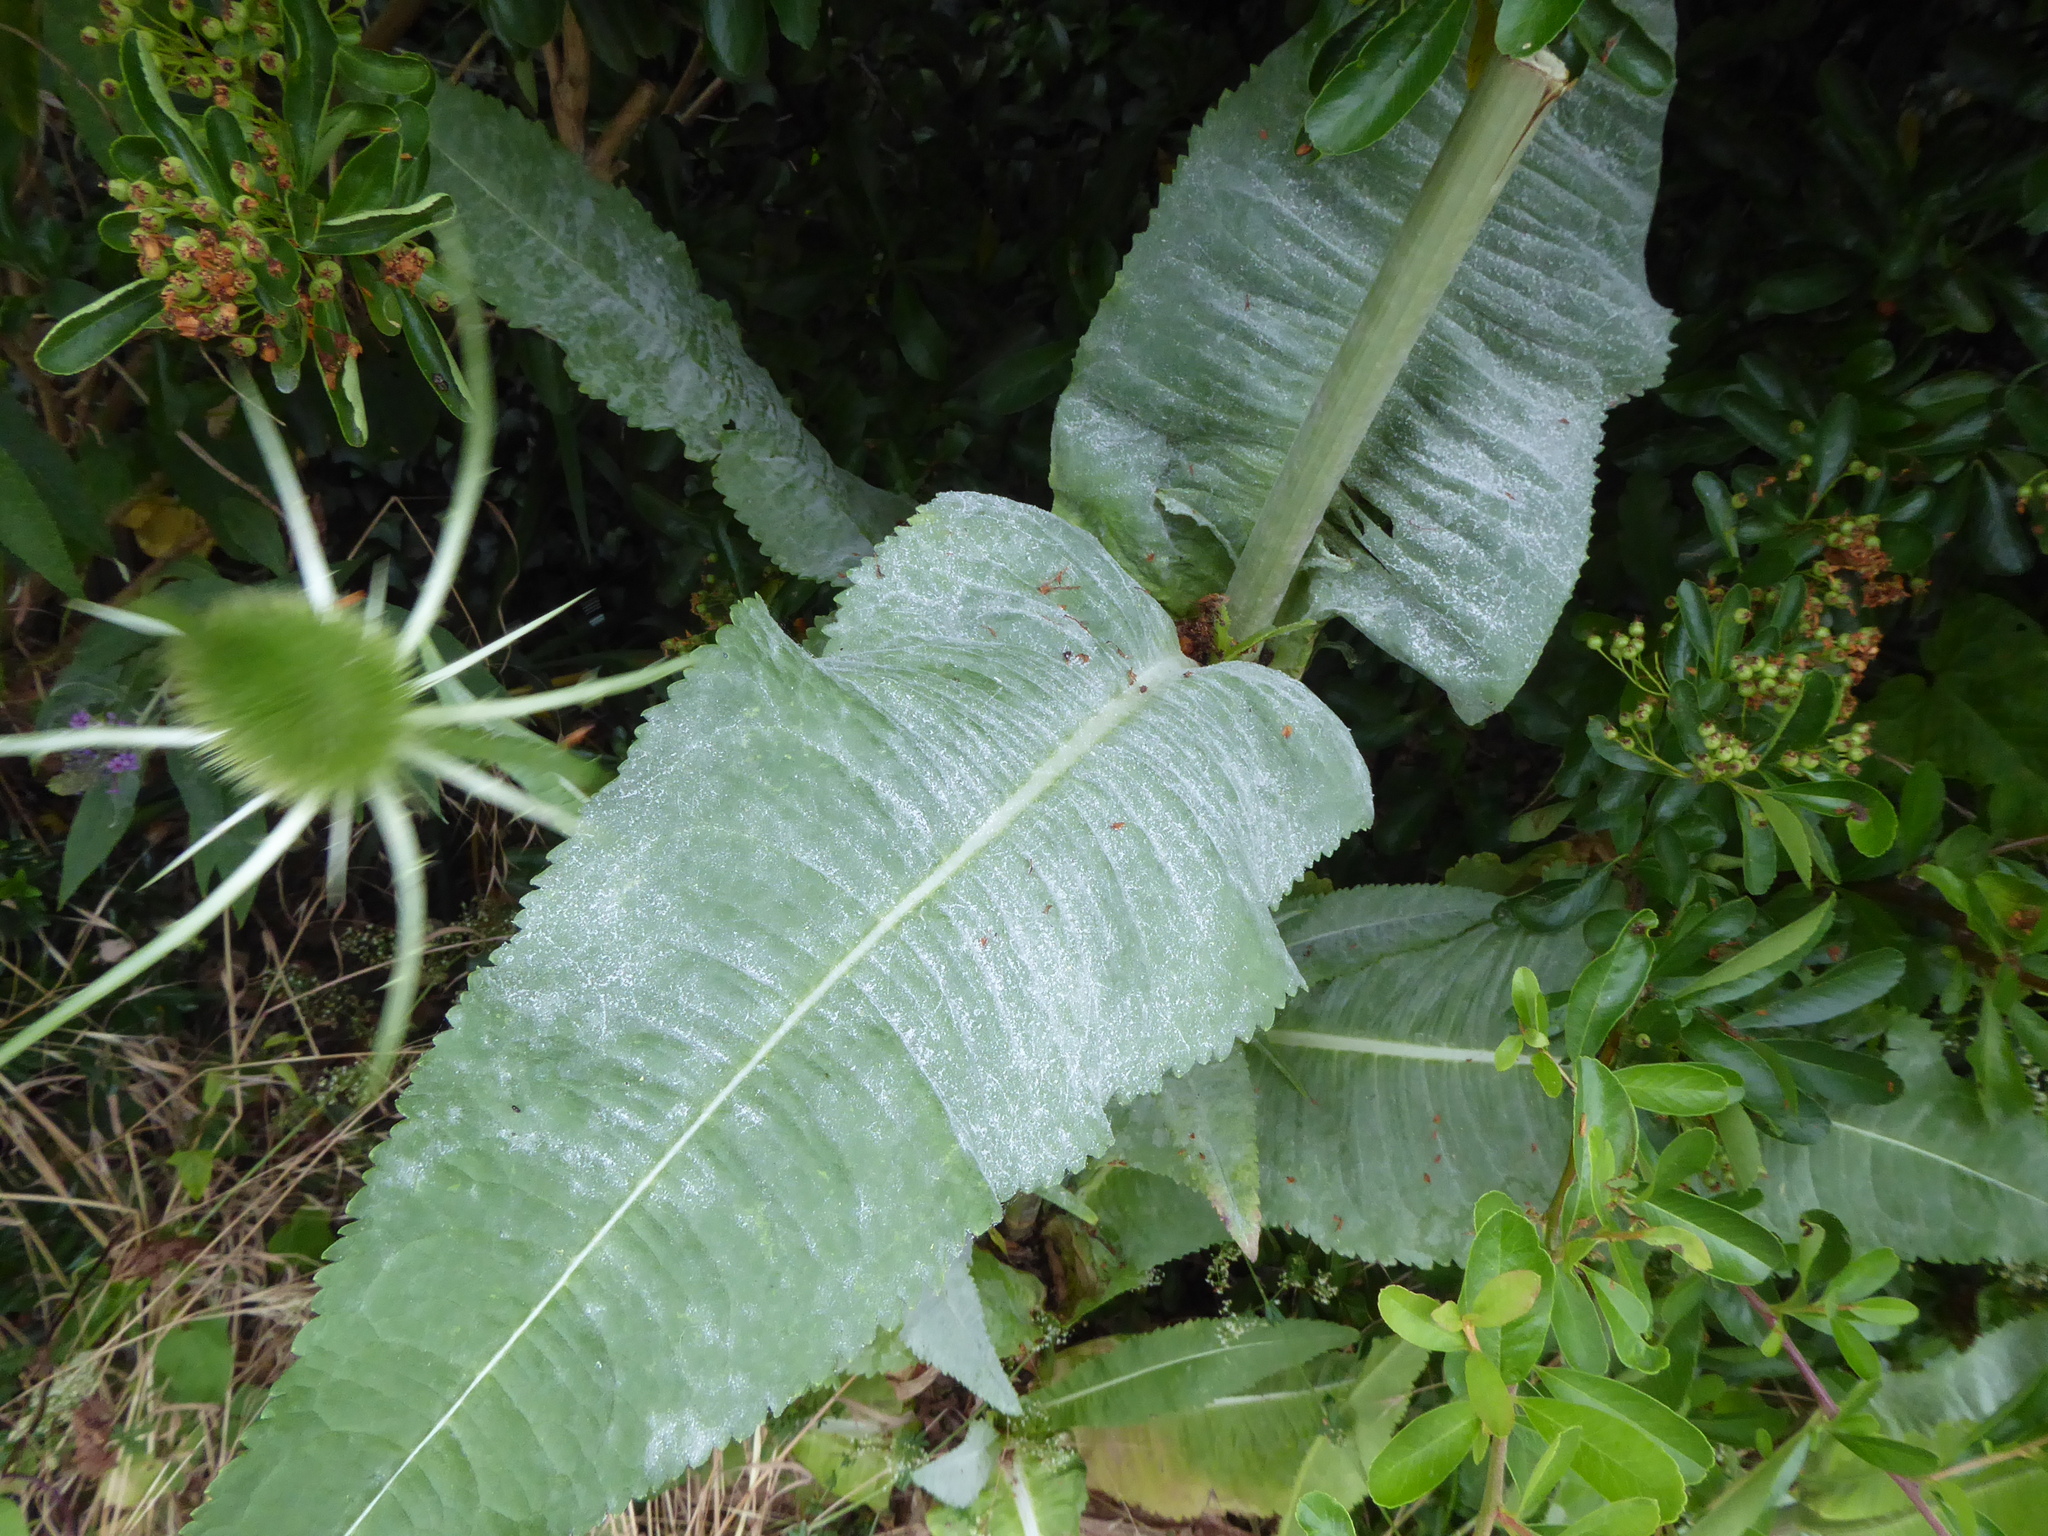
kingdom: Plantae
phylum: Tracheophyta
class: Magnoliopsida
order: Dipsacales
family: Caprifoliaceae
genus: Dipsacus
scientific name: Dipsacus fullonum
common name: Teasel
